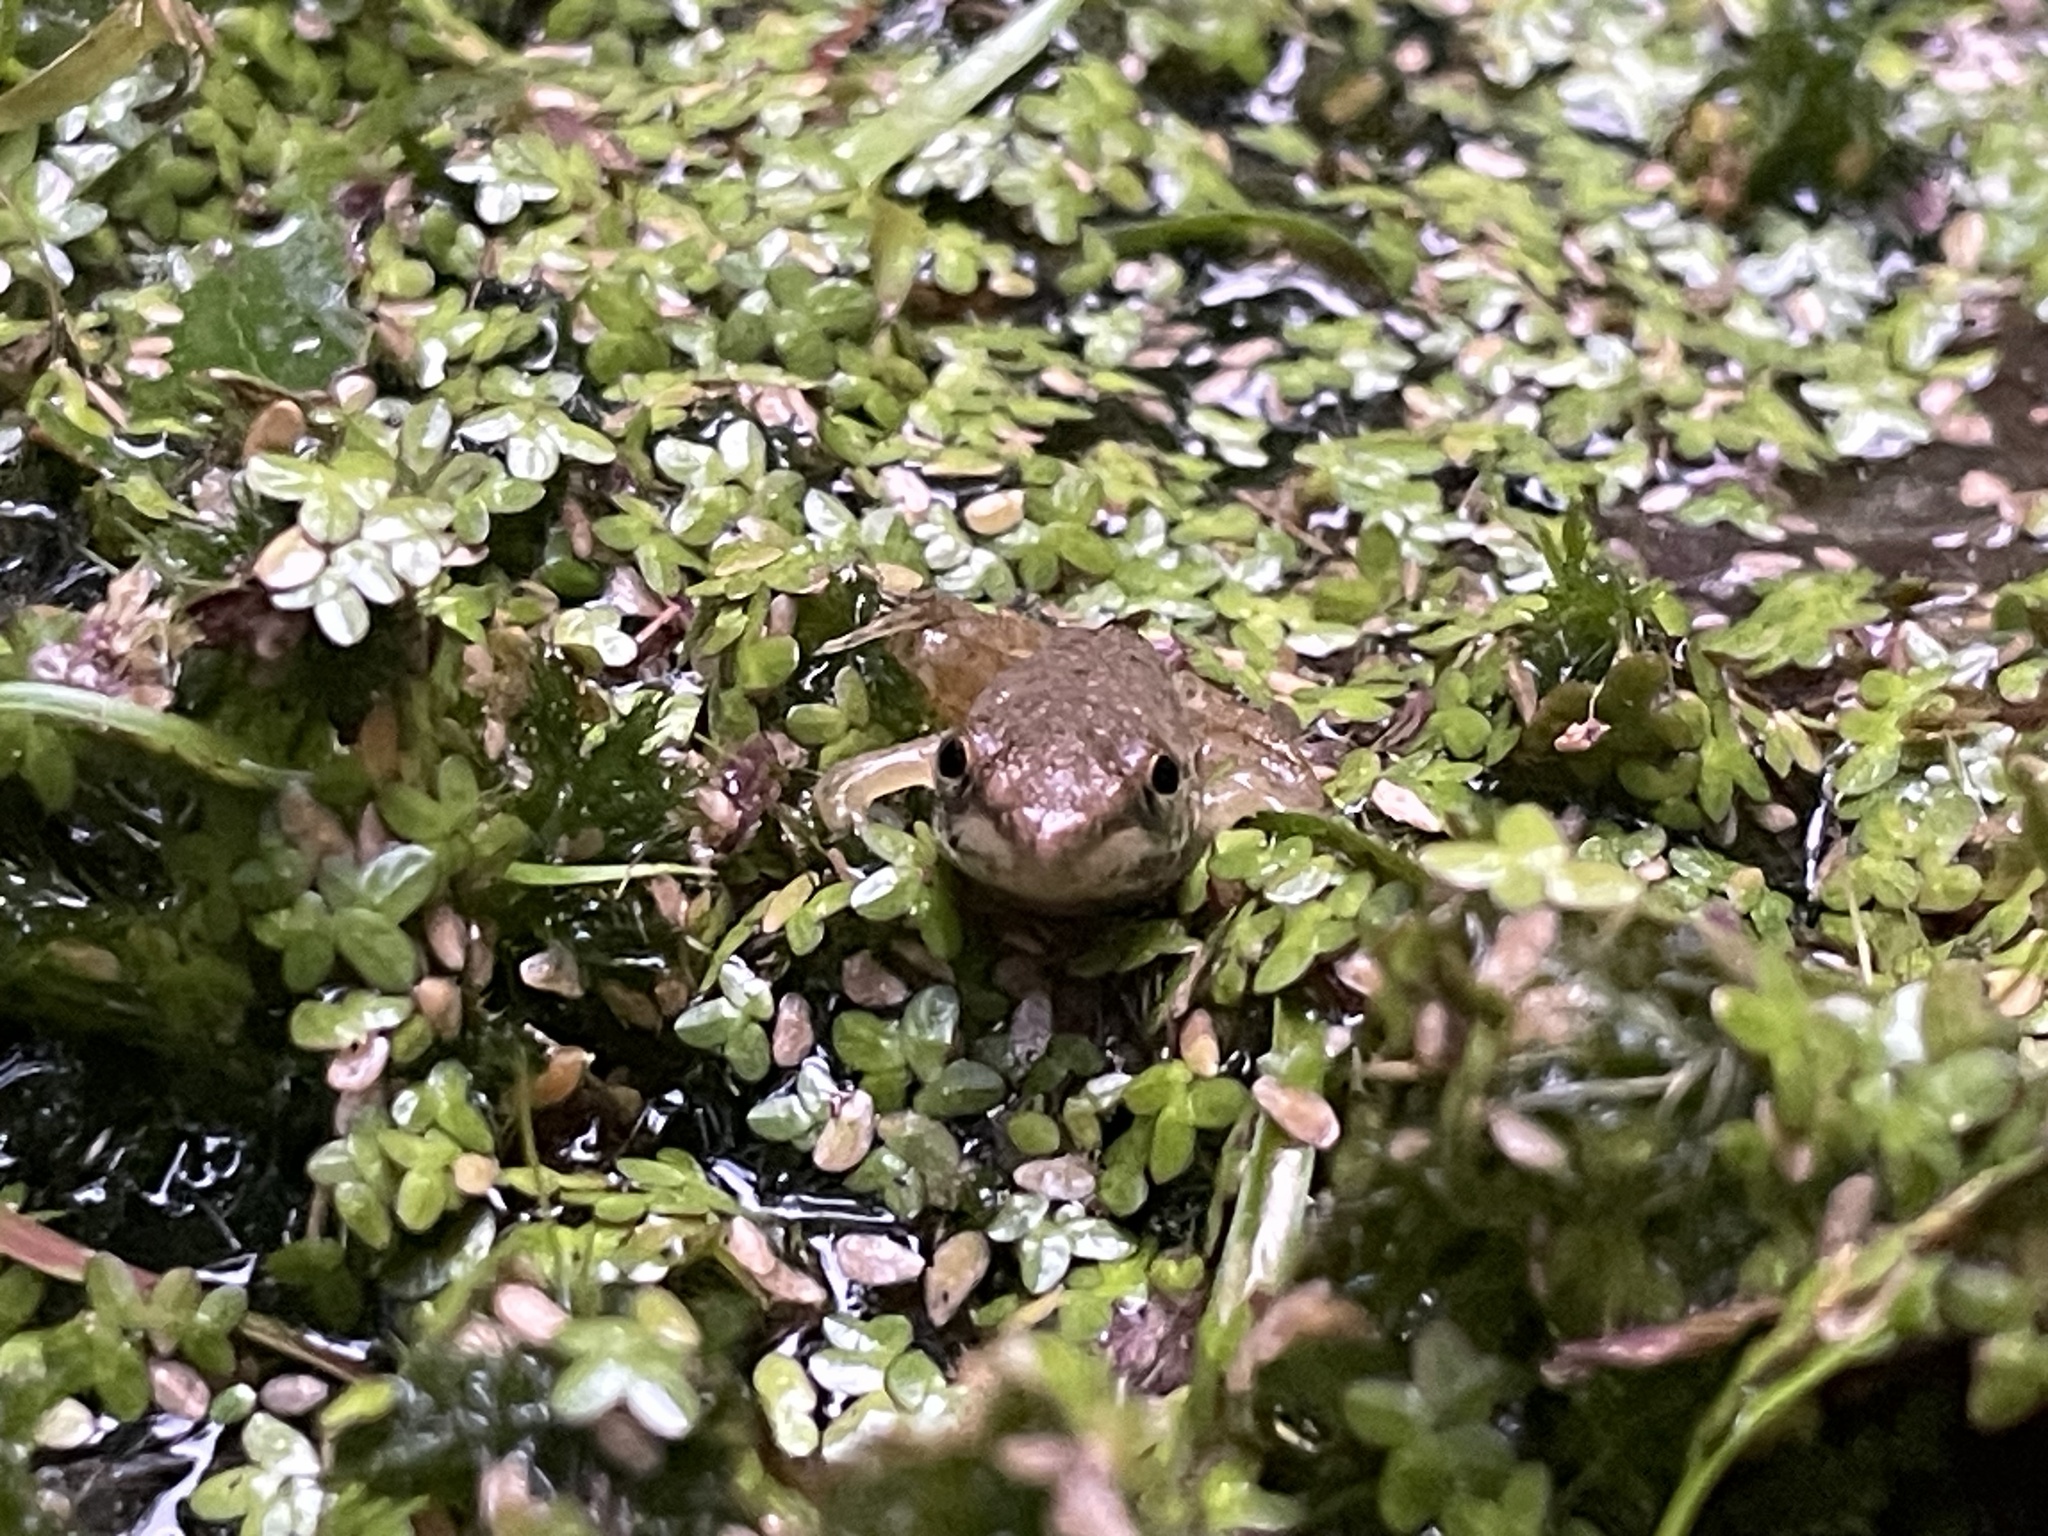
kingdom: Animalia
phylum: Chordata
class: Amphibia
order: Anura
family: Ranidae
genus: Lithobates
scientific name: Lithobates clamitans
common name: Green frog
